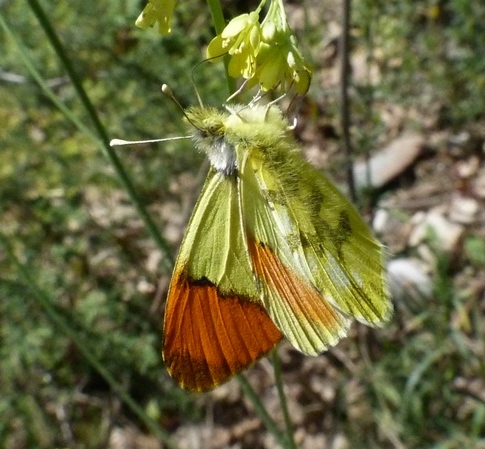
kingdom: Animalia
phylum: Arthropoda
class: Insecta
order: Lepidoptera
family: Pieridae
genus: Anthocharis
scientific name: Anthocharis euphenoides
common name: Provence orange-tip
